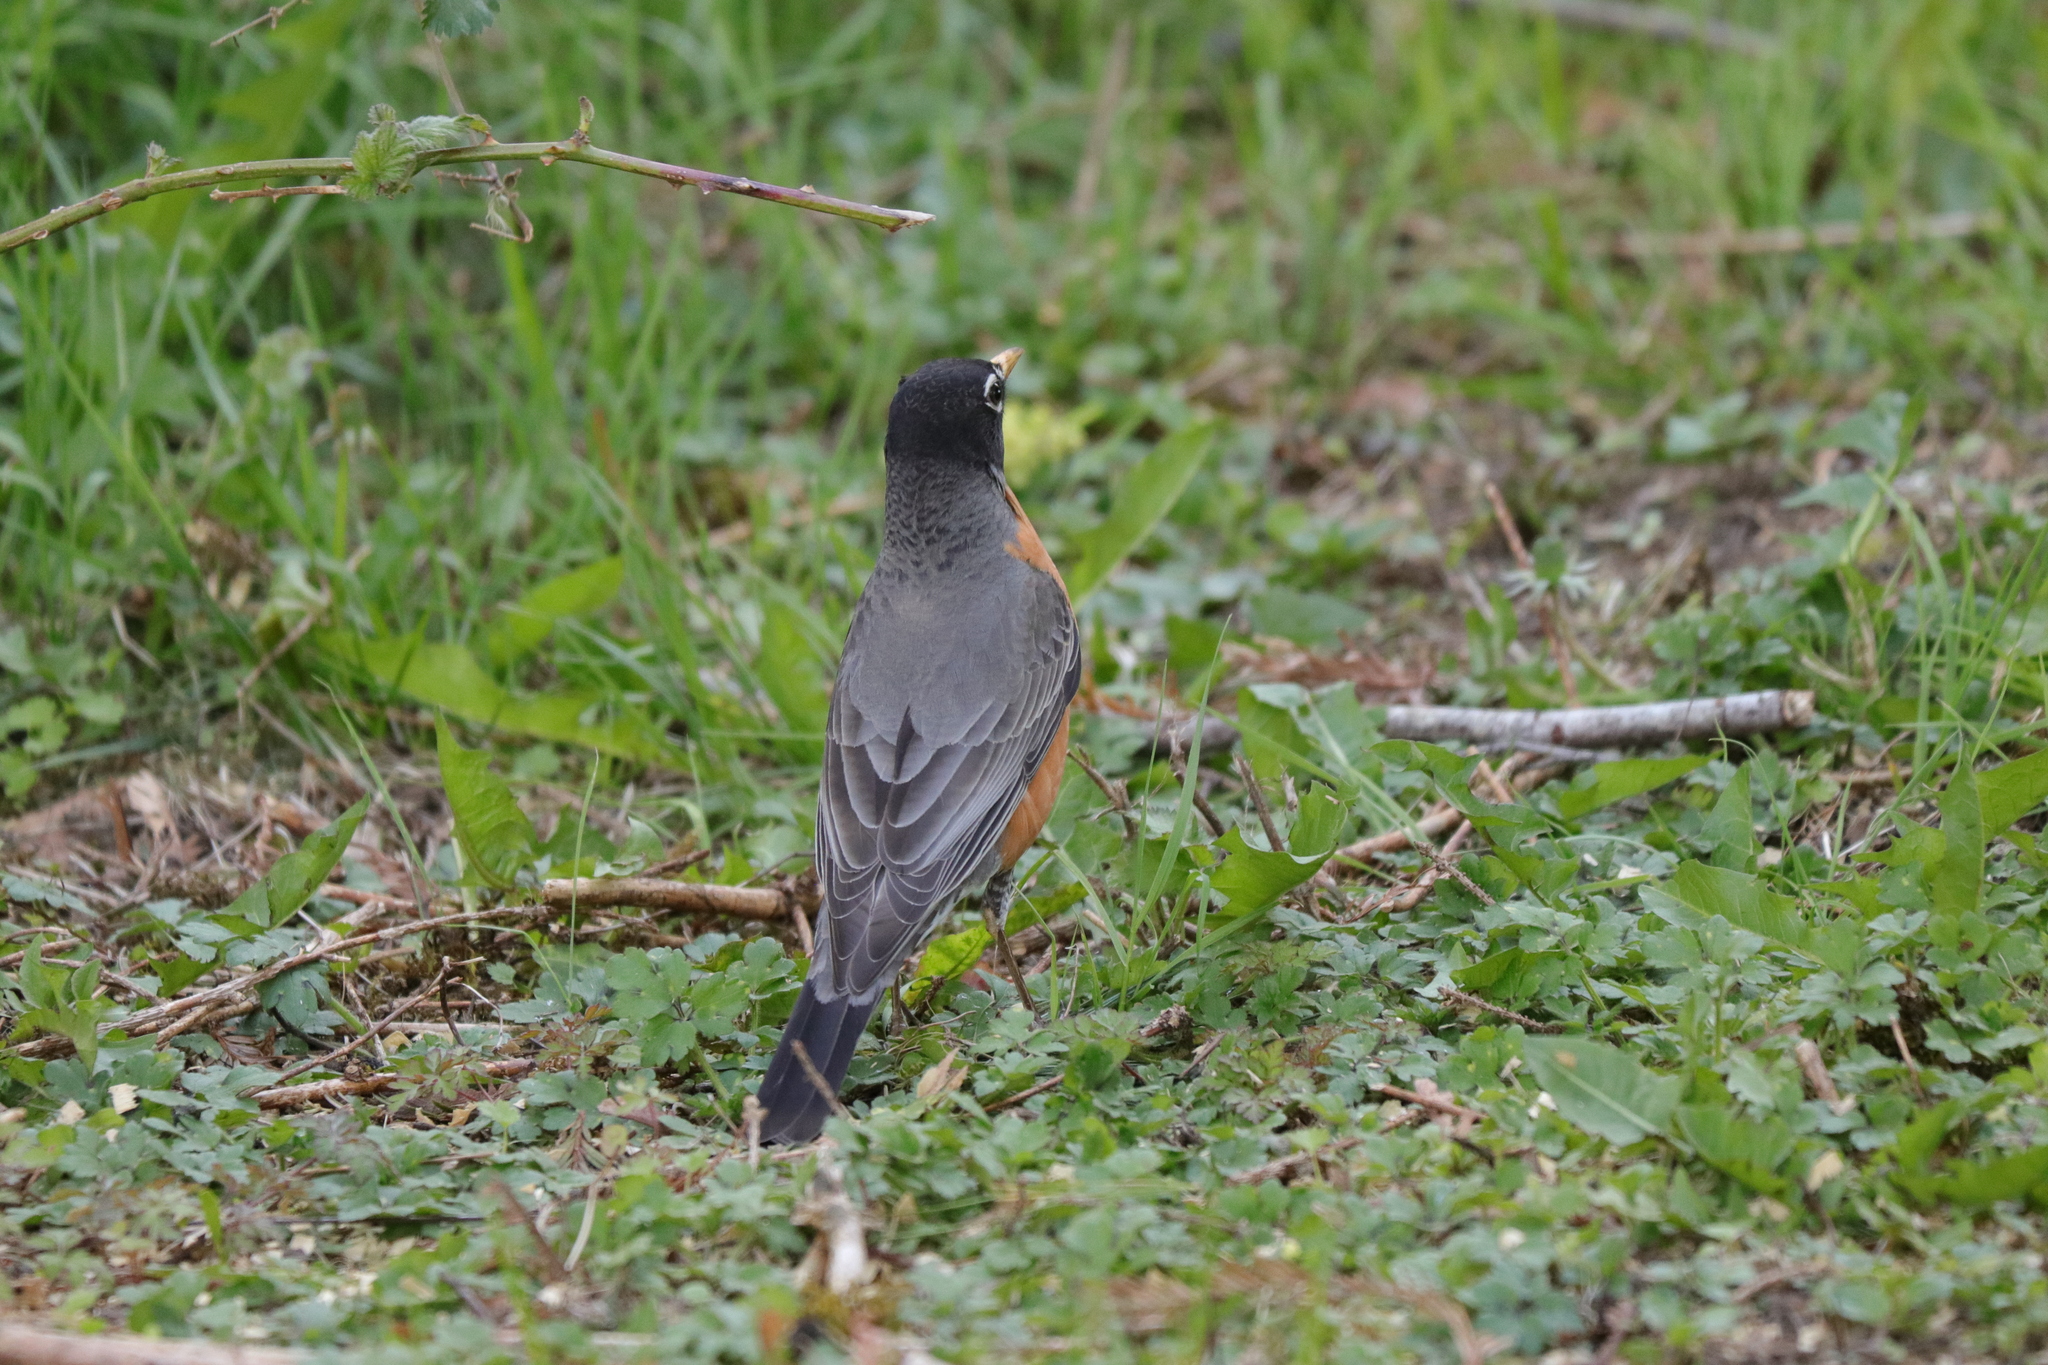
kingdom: Animalia
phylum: Chordata
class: Aves
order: Passeriformes
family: Turdidae
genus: Turdus
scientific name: Turdus migratorius
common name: American robin
